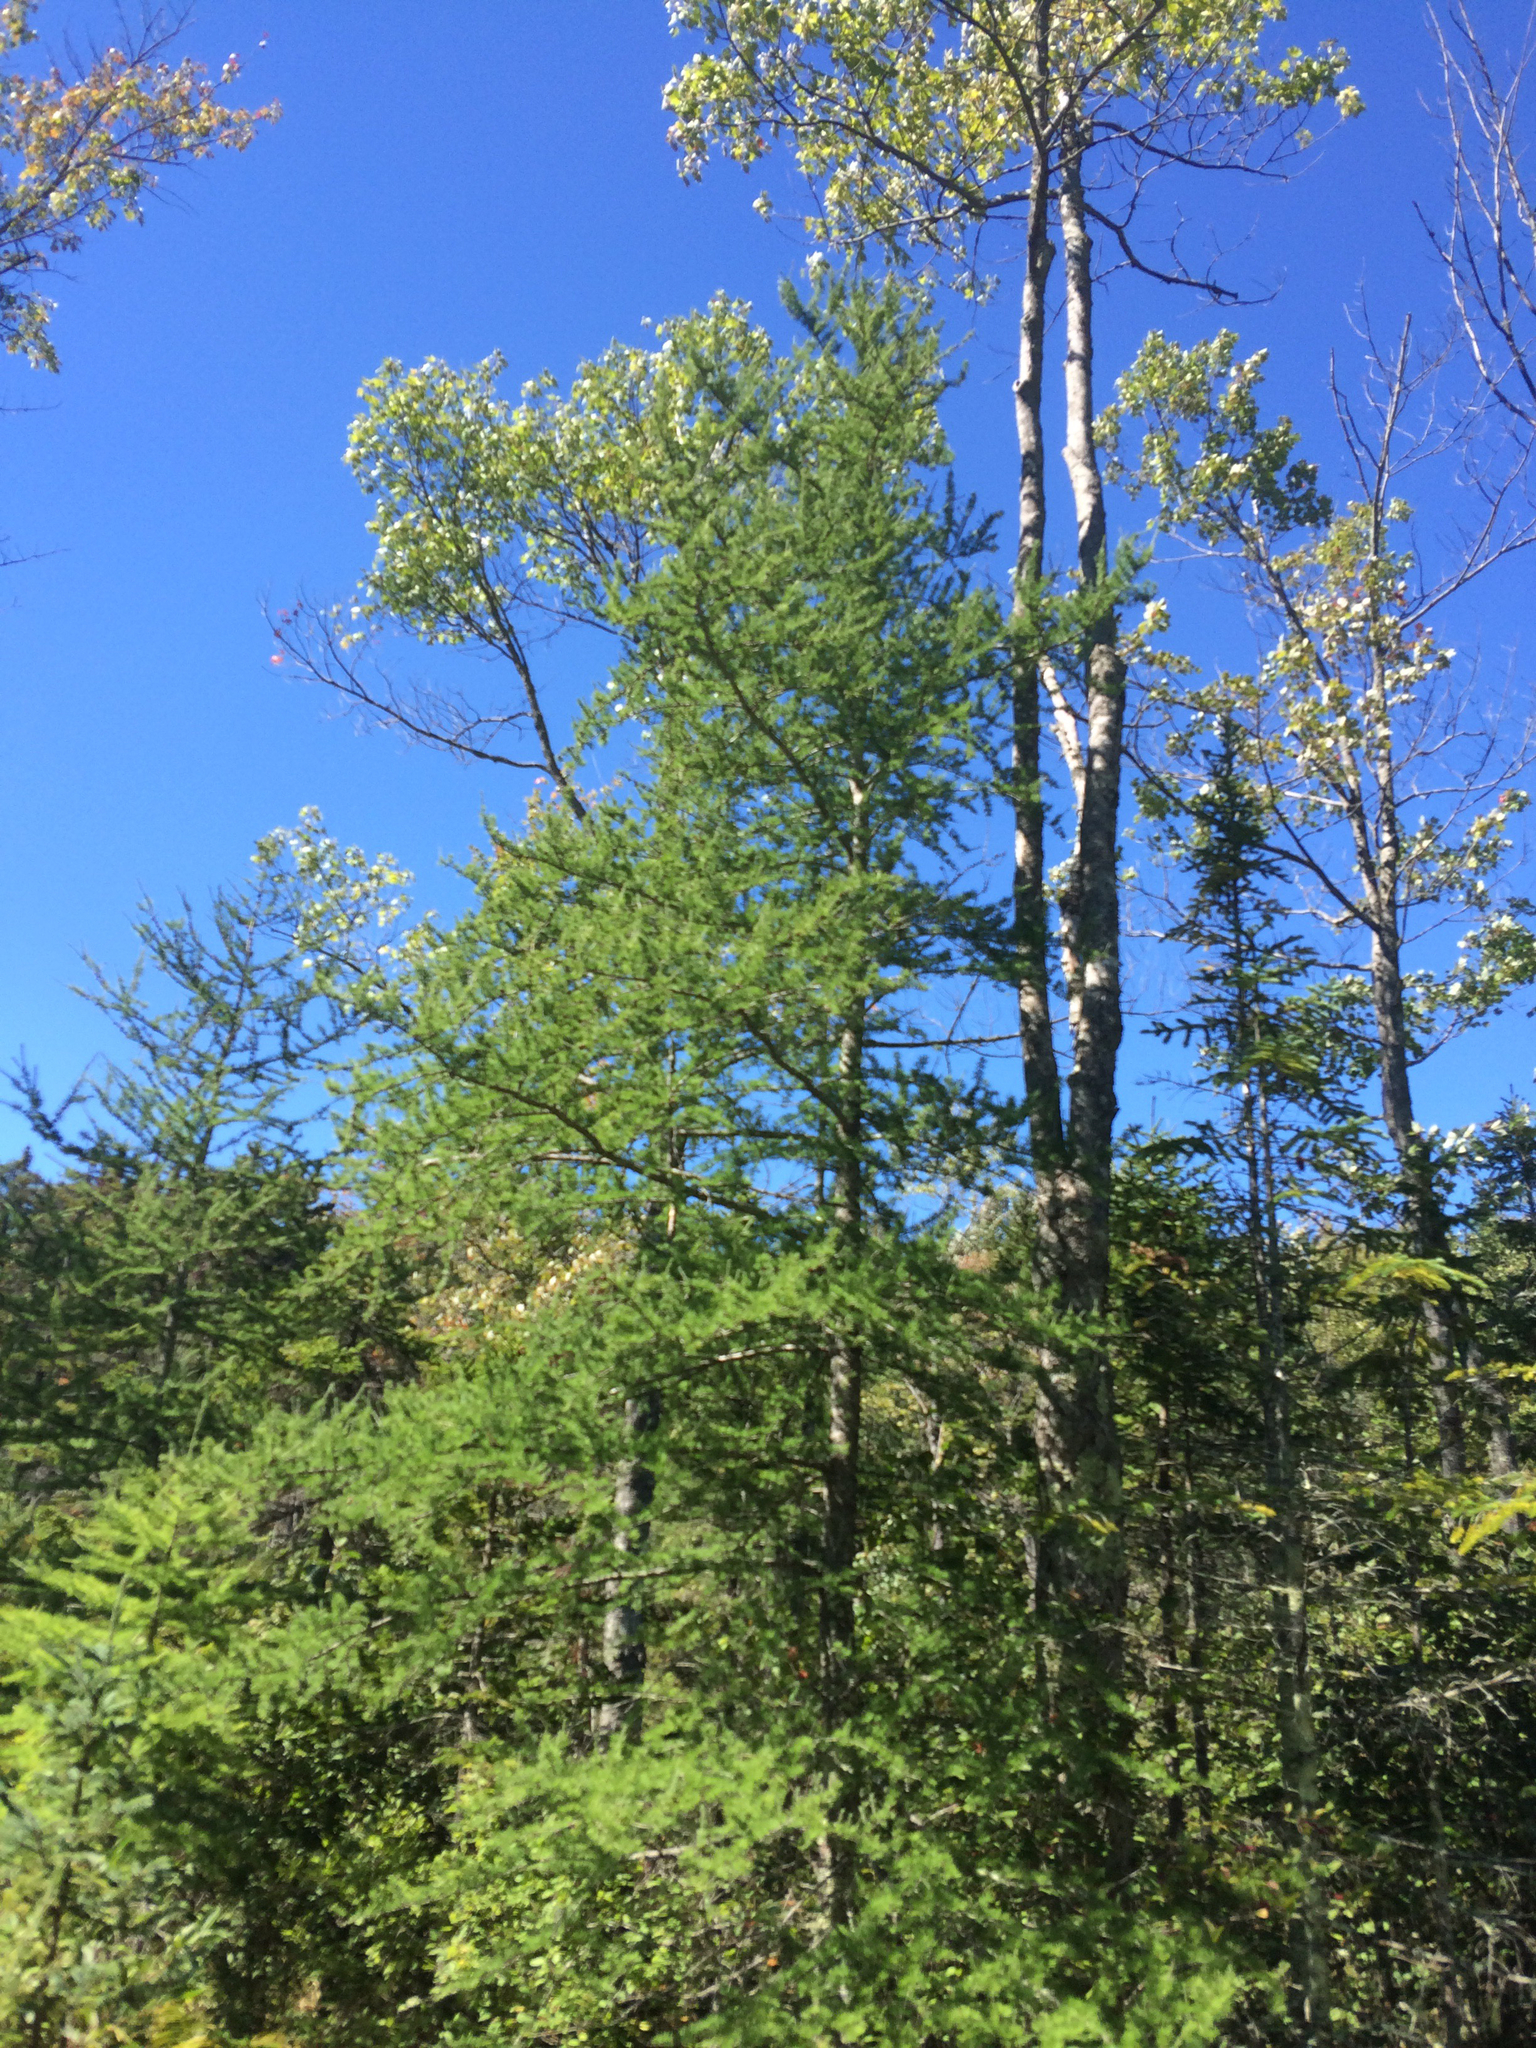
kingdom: Plantae
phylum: Tracheophyta
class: Pinopsida
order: Pinales
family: Pinaceae
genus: Larix
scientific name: Larix laricina
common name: American larch
